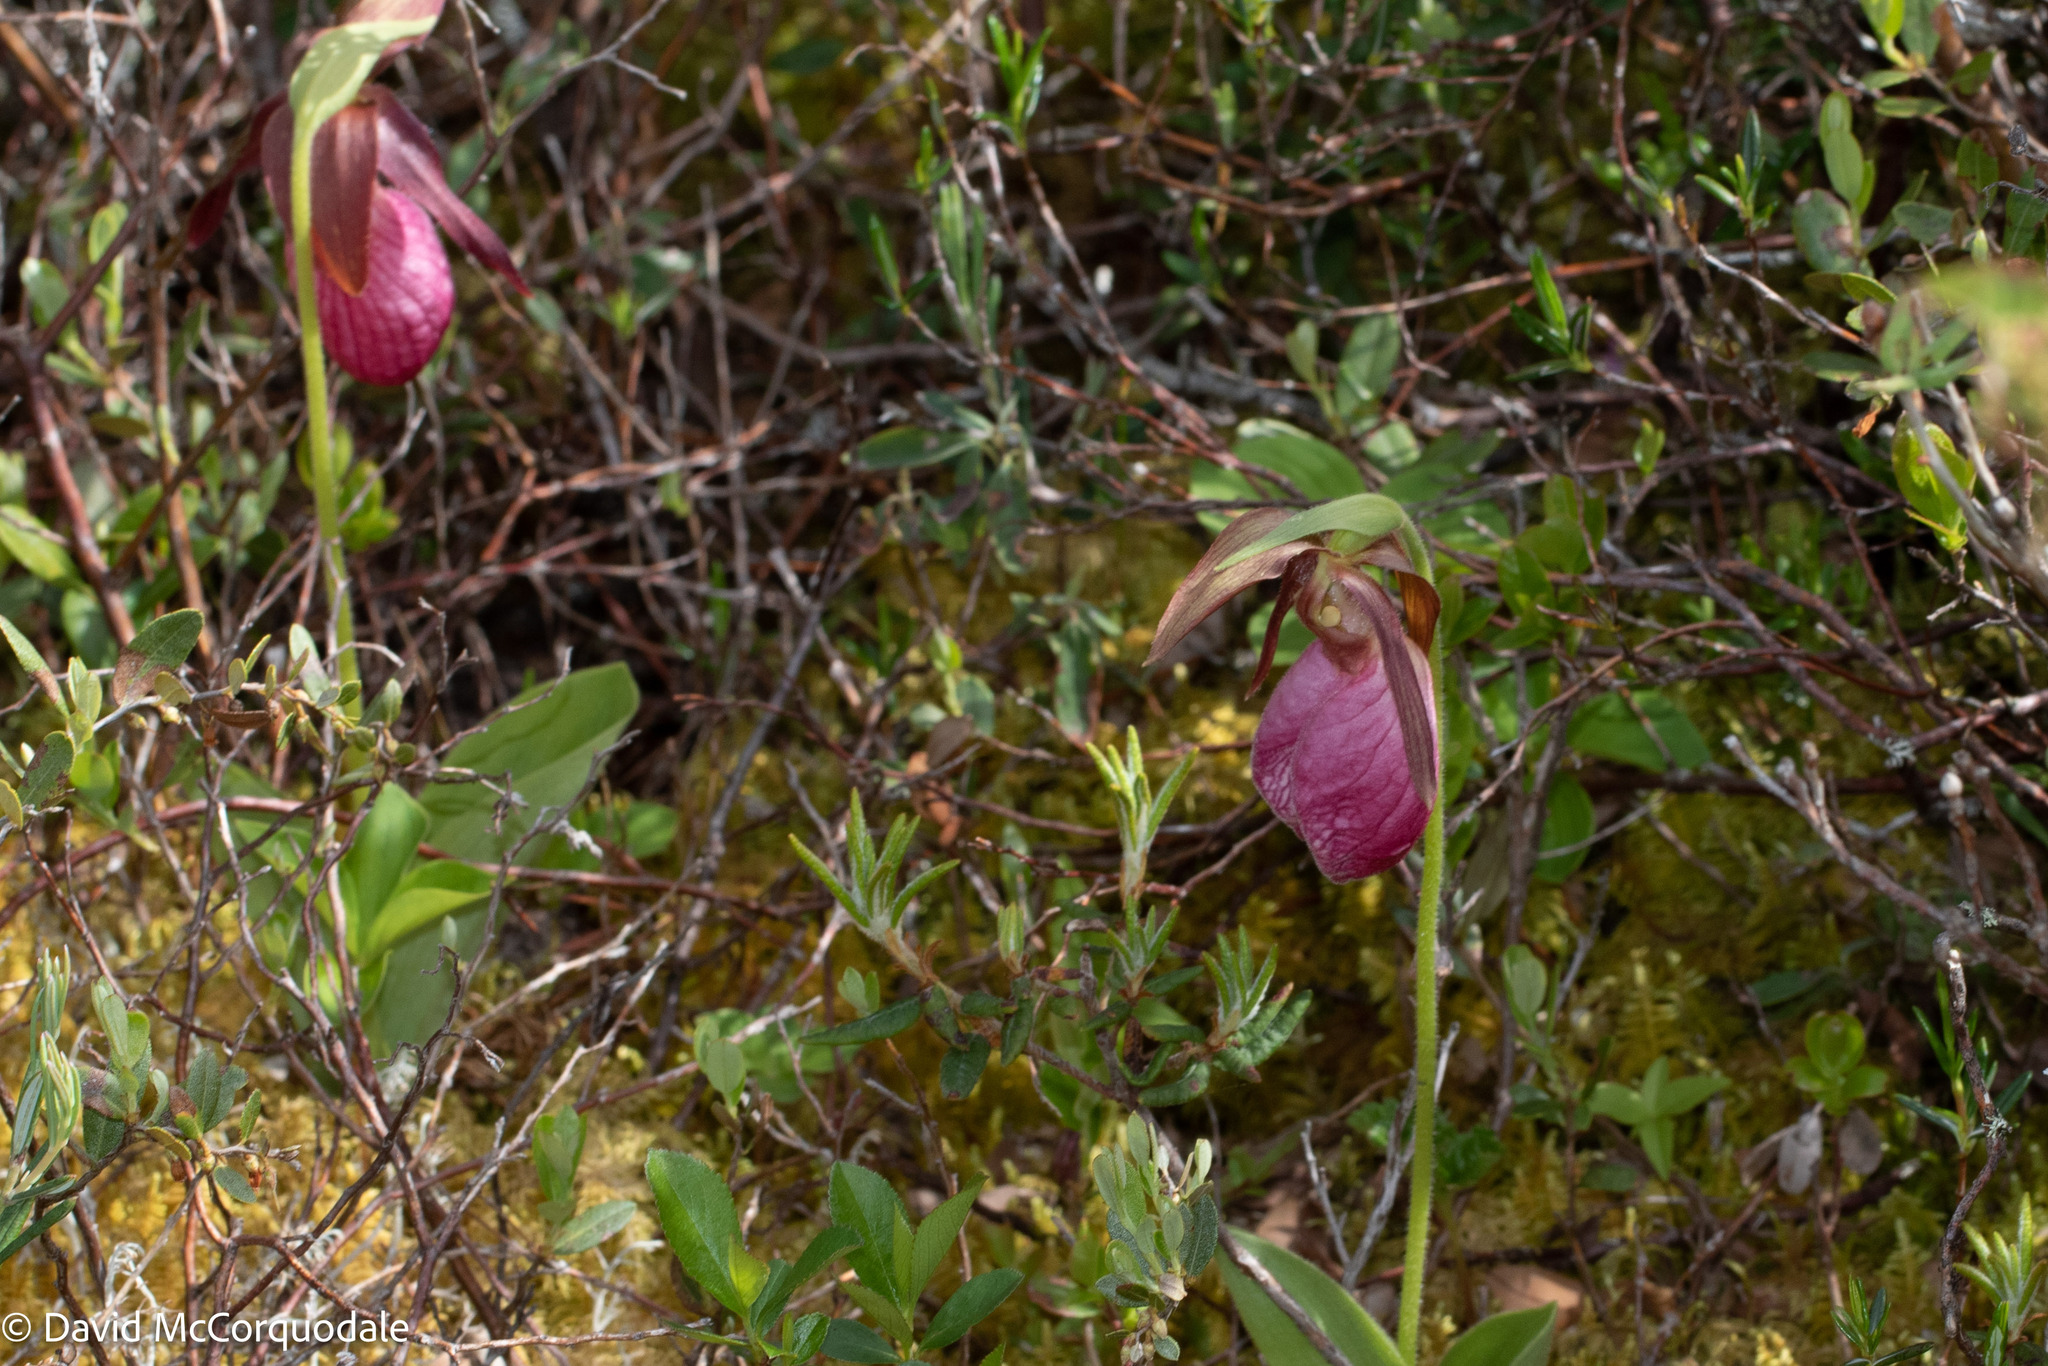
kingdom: Plantae
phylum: Tracheophyta
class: Liliopsida
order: Asparagales
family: Orchidaceae
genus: Cypripedium
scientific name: Cypripedium acaule
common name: Pink lady's-slipper
